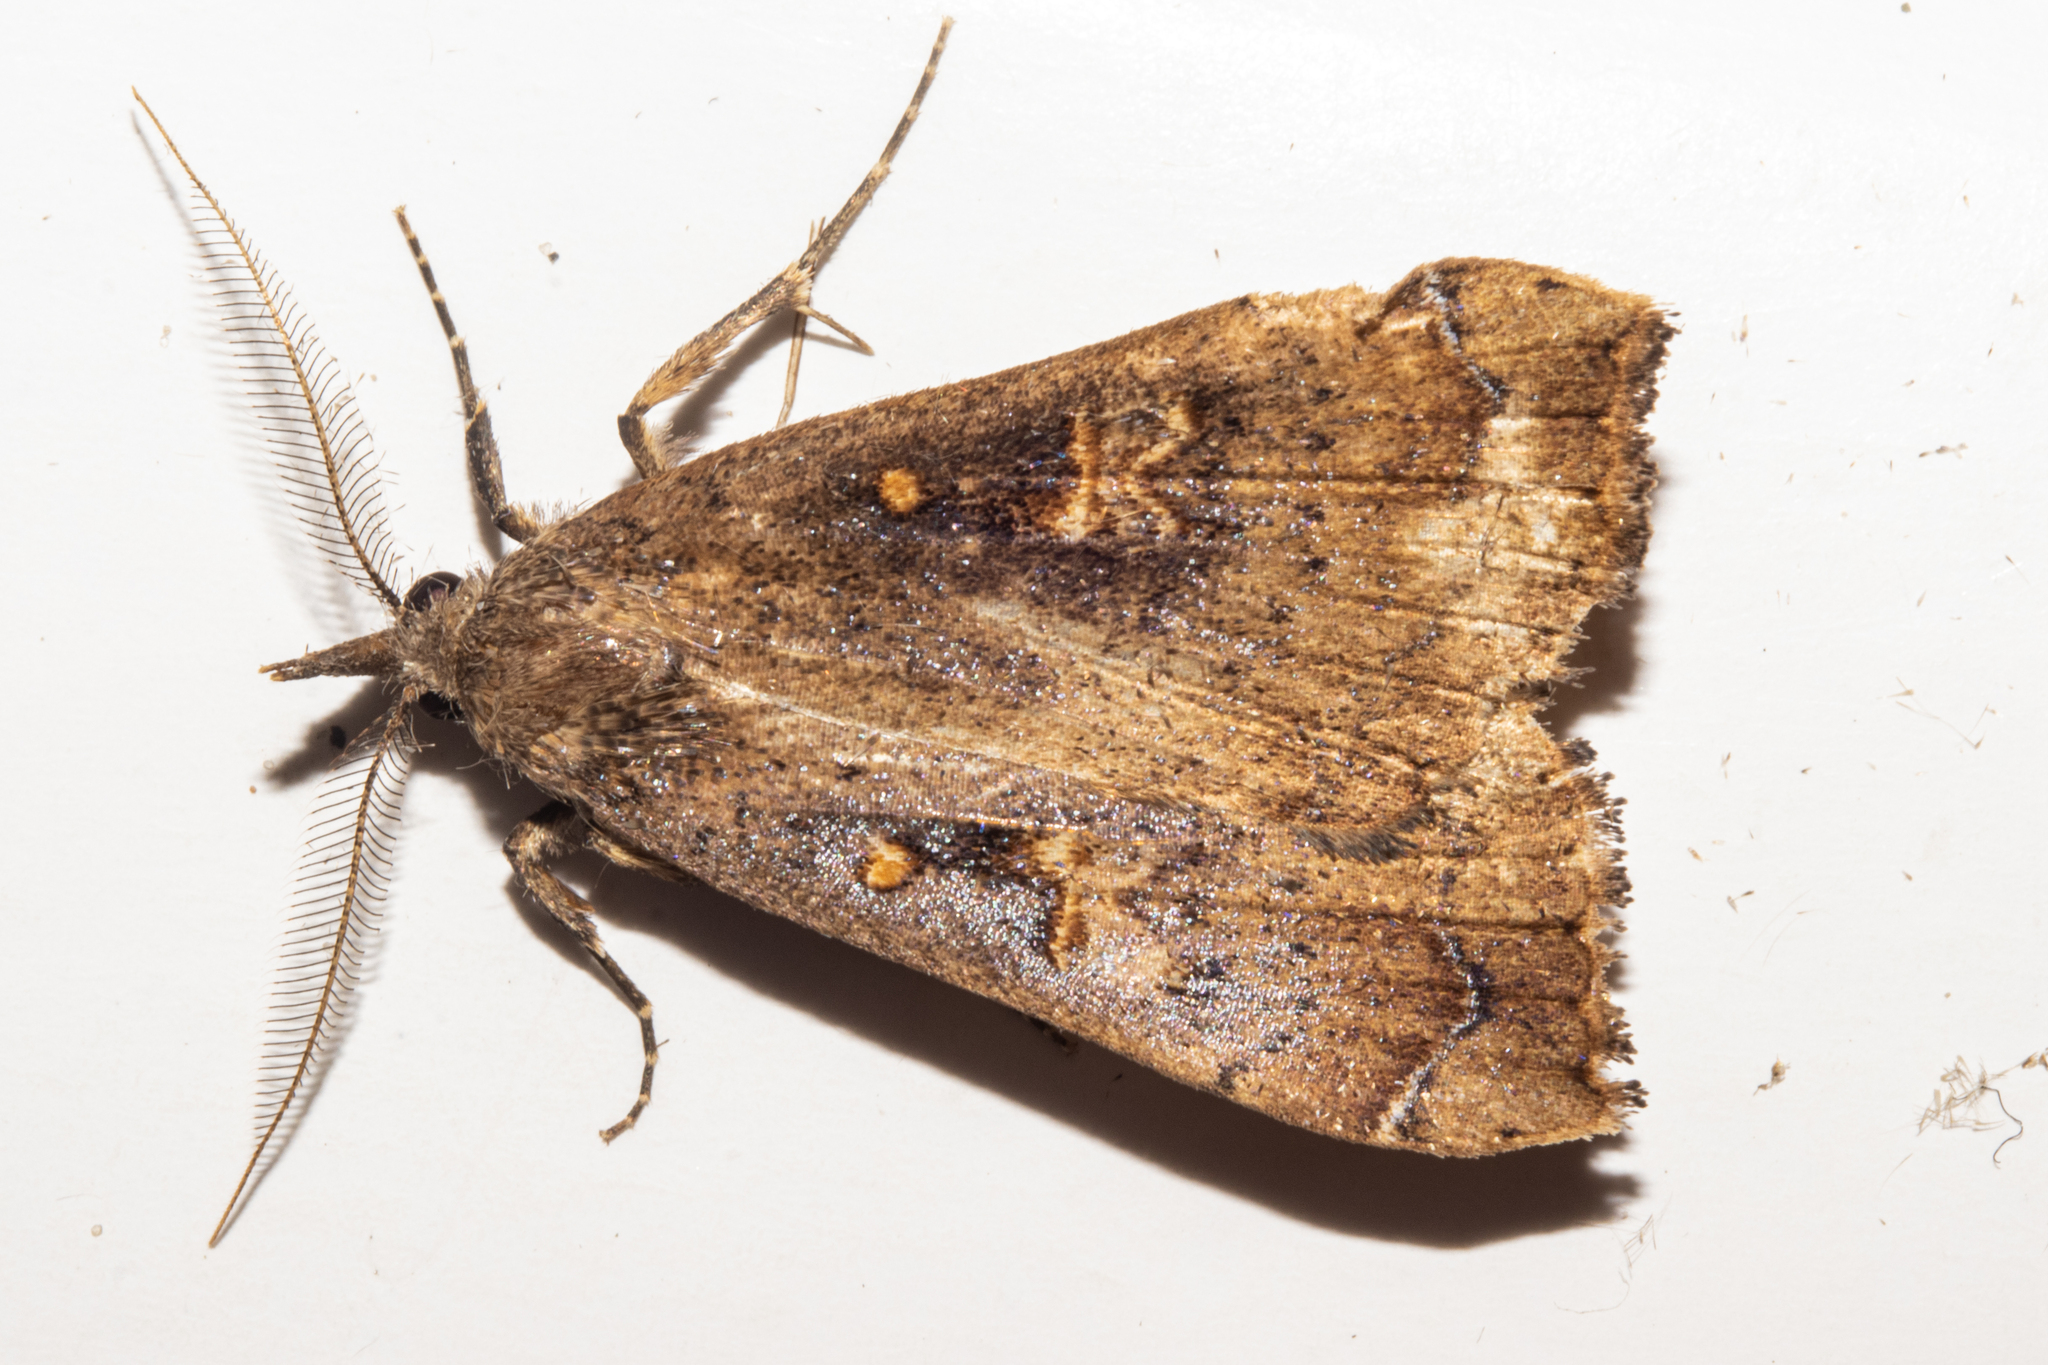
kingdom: Animalia
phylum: Arthropoda
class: Insecta
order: Lepidoptera
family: Erebidae
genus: Rhapsa
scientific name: Rhapsa scotosialis
